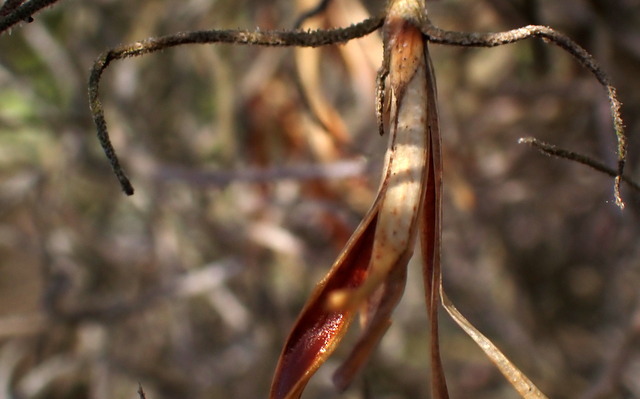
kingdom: Plantae
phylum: Tracheophyta
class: Liliopsida
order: Poales
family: Bromeliaceae
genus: Tillandsia
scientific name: Tillandsia usneoides
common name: Spanish moss
